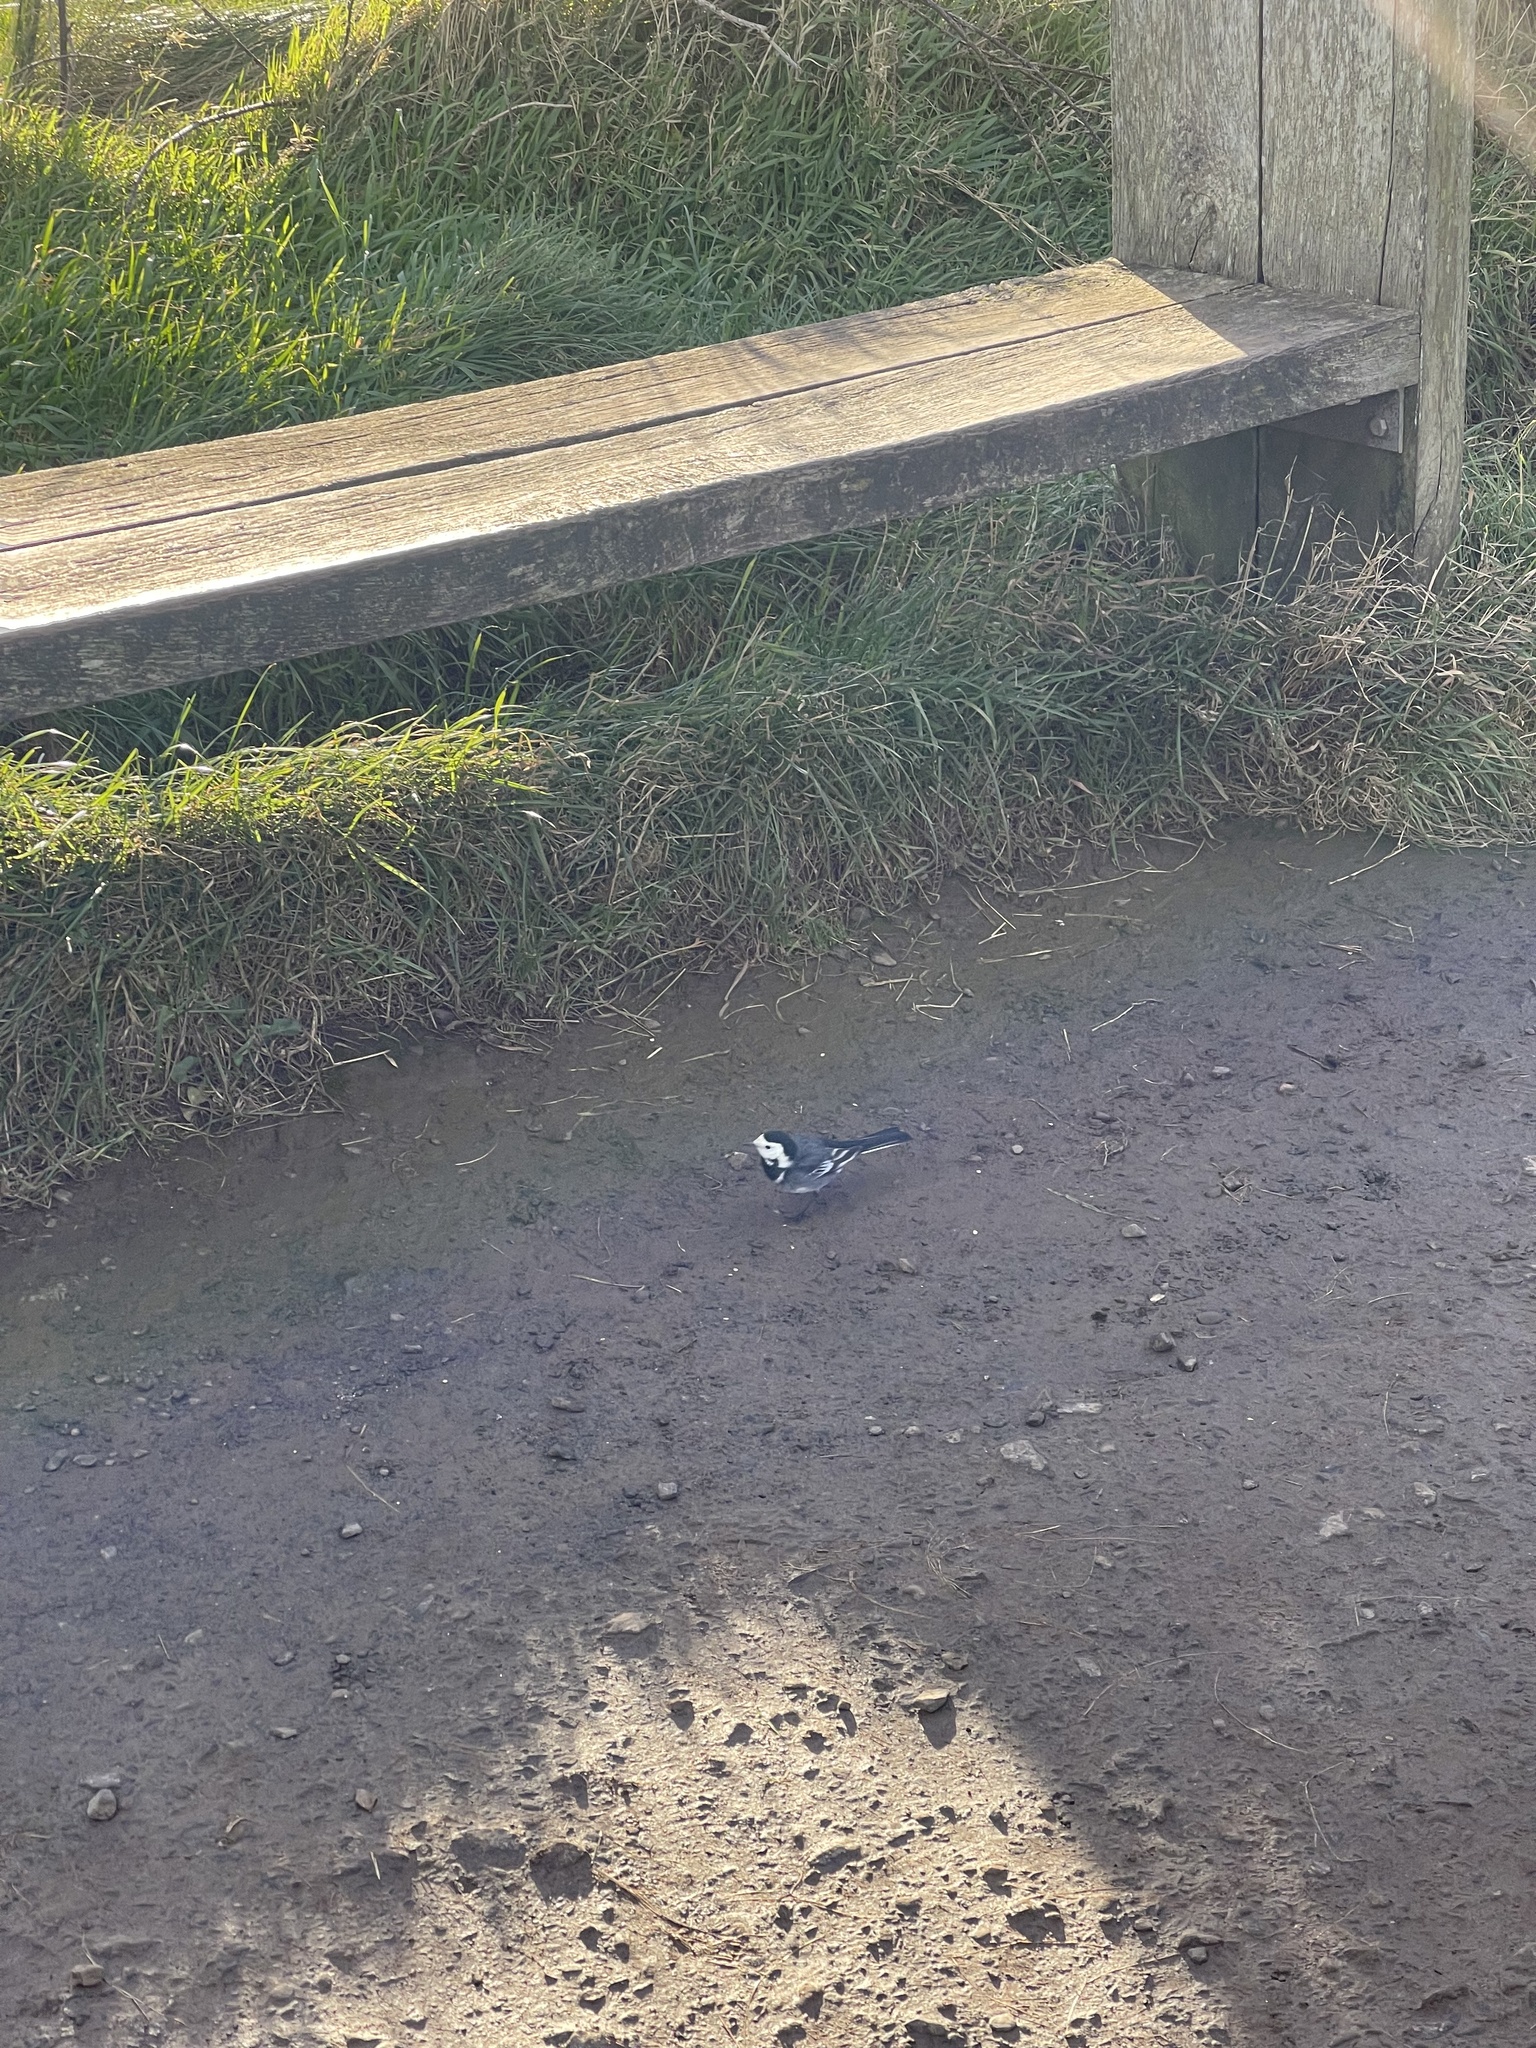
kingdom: Animalia
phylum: Chordata
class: Aves
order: Passeriformes
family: Motacillidae
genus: Motacilla
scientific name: Motacilla alba
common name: White wagtail
